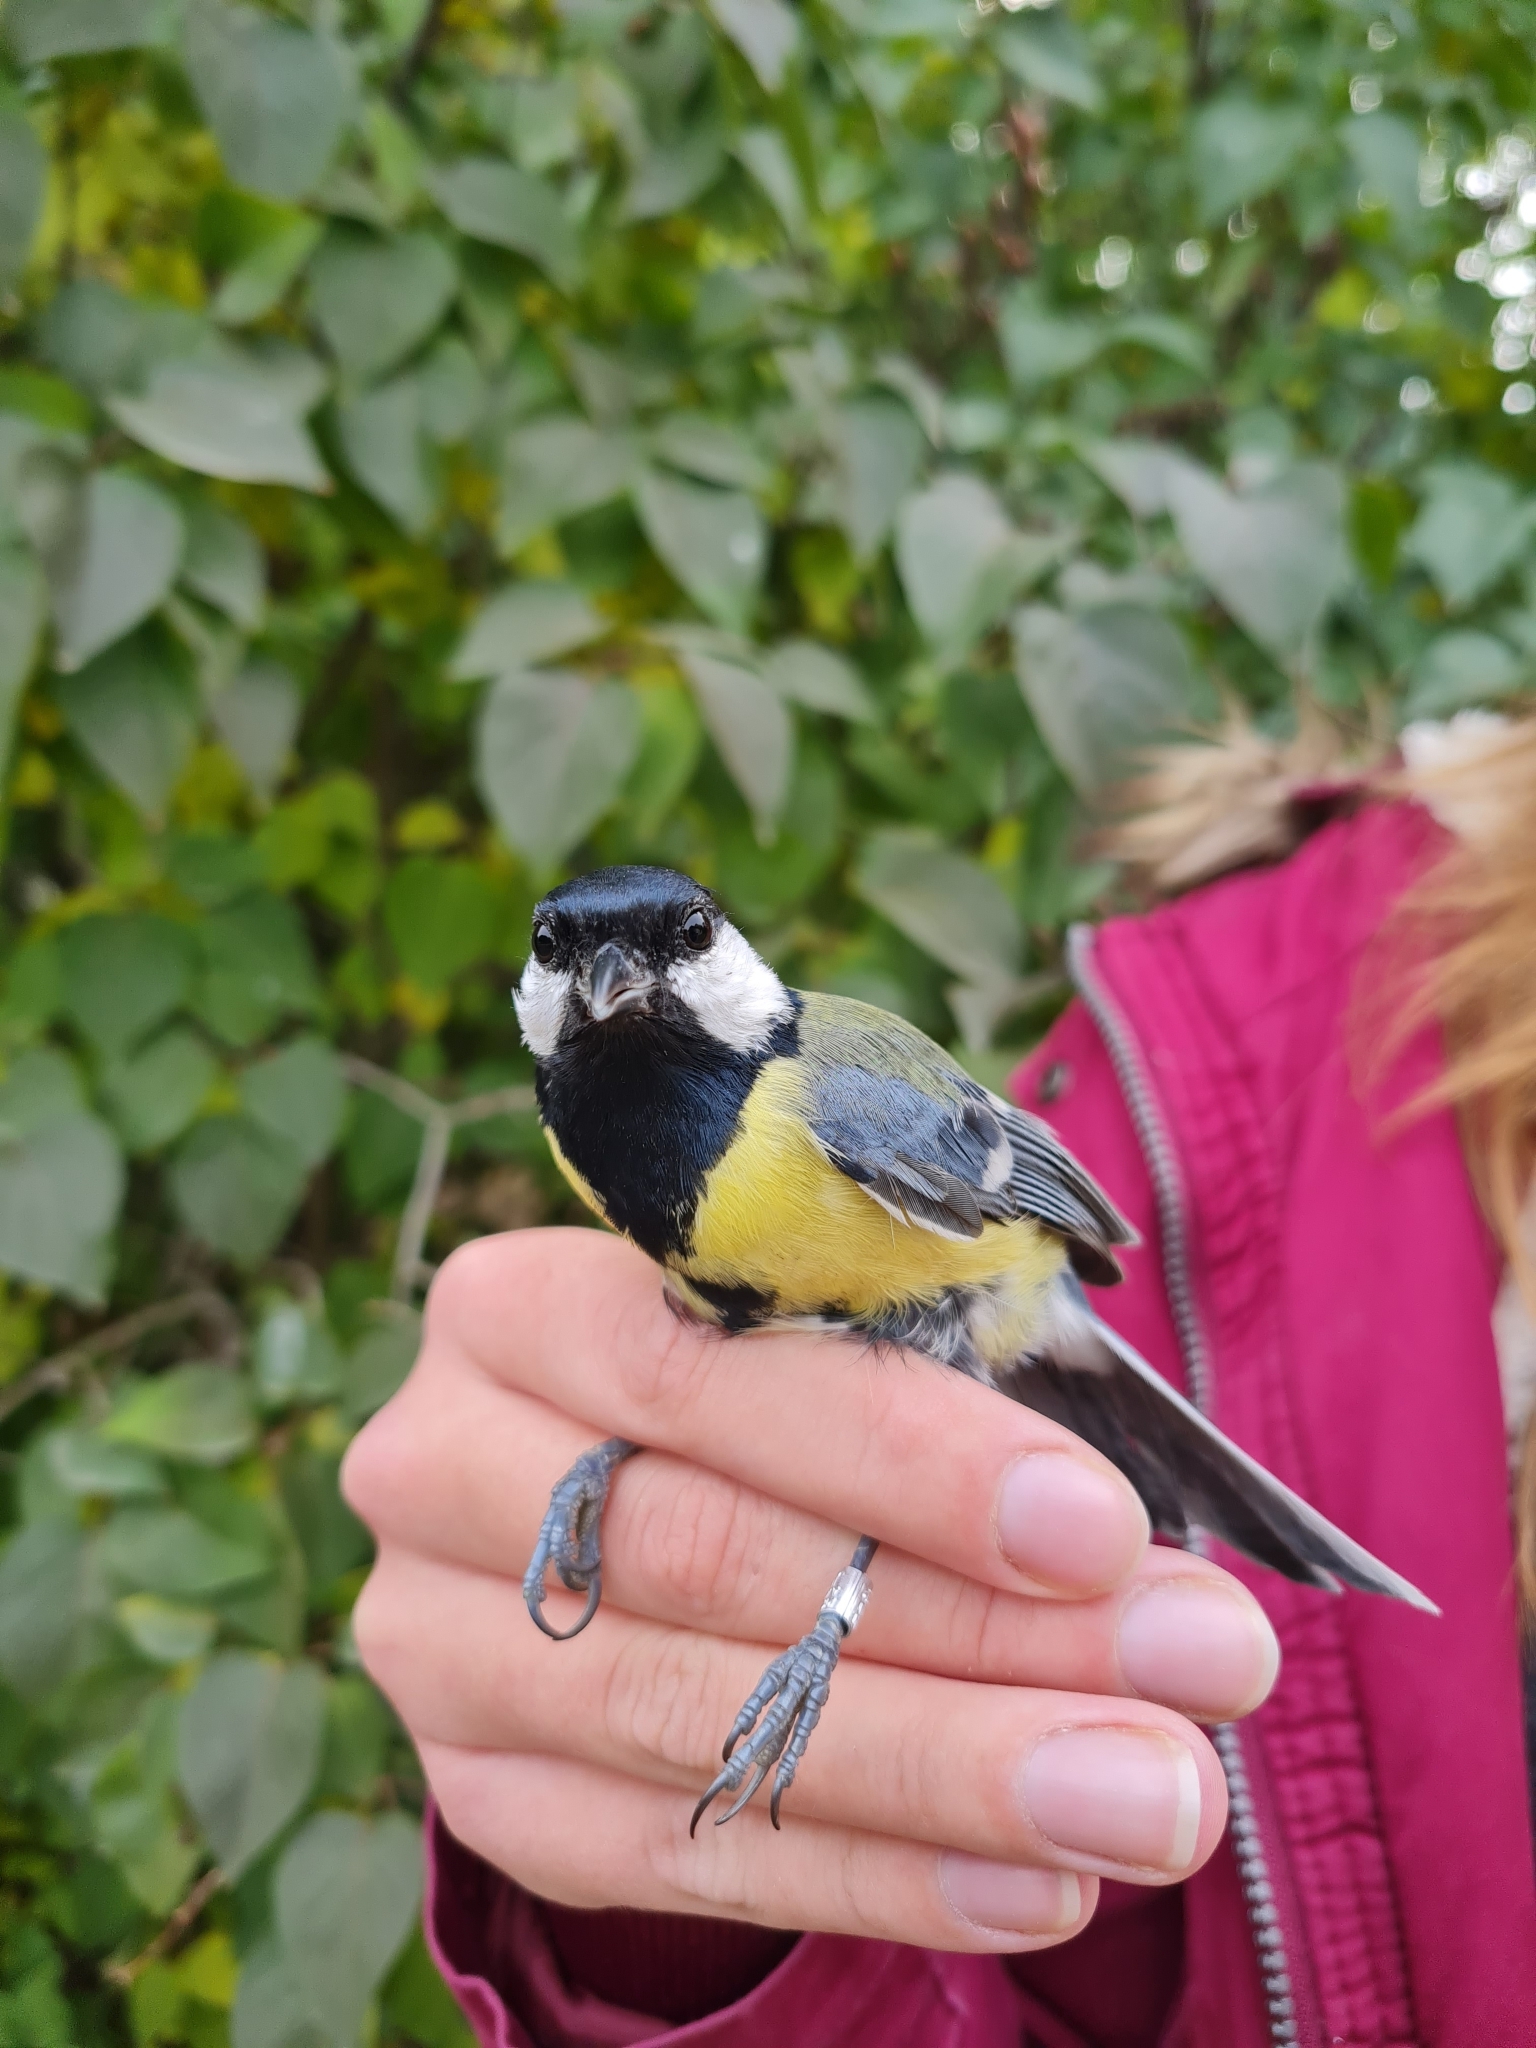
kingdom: Animalia
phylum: Chordata
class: Aves
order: Passeriformes
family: Paridae
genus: Parus
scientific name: Parus major
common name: Great tit
